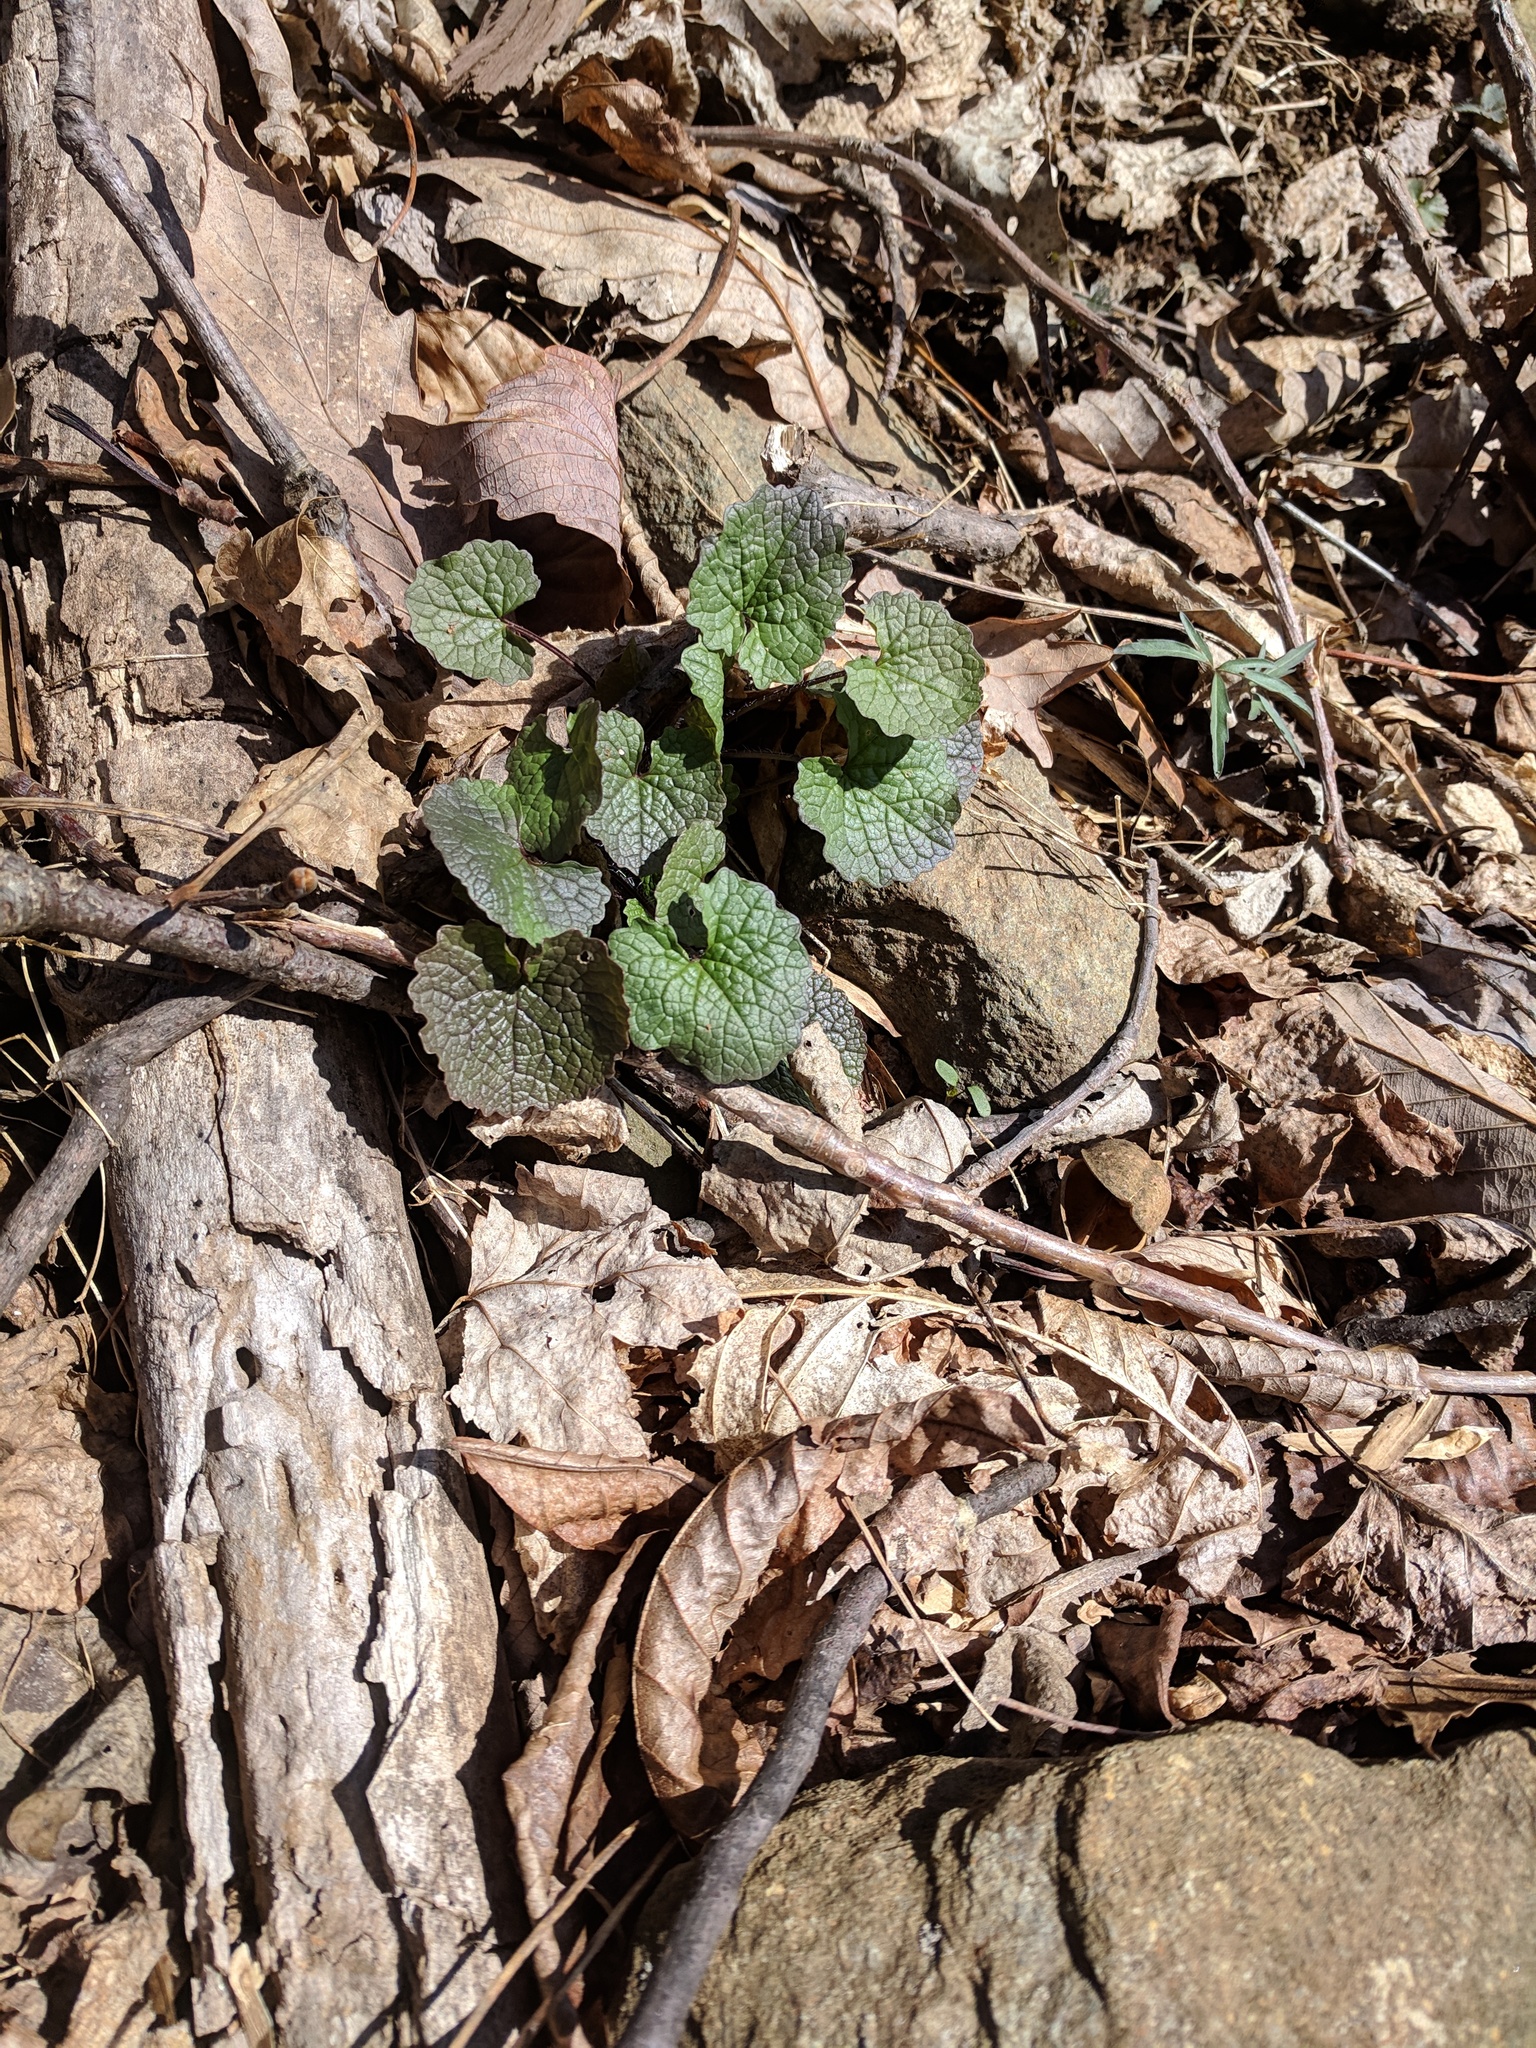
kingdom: Plantae
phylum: Tracheophyta
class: Magnoliopsida
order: Brassicales
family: Brassicaceae
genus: Alliaria
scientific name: Alliaria petiolata
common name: Garlic mustard
